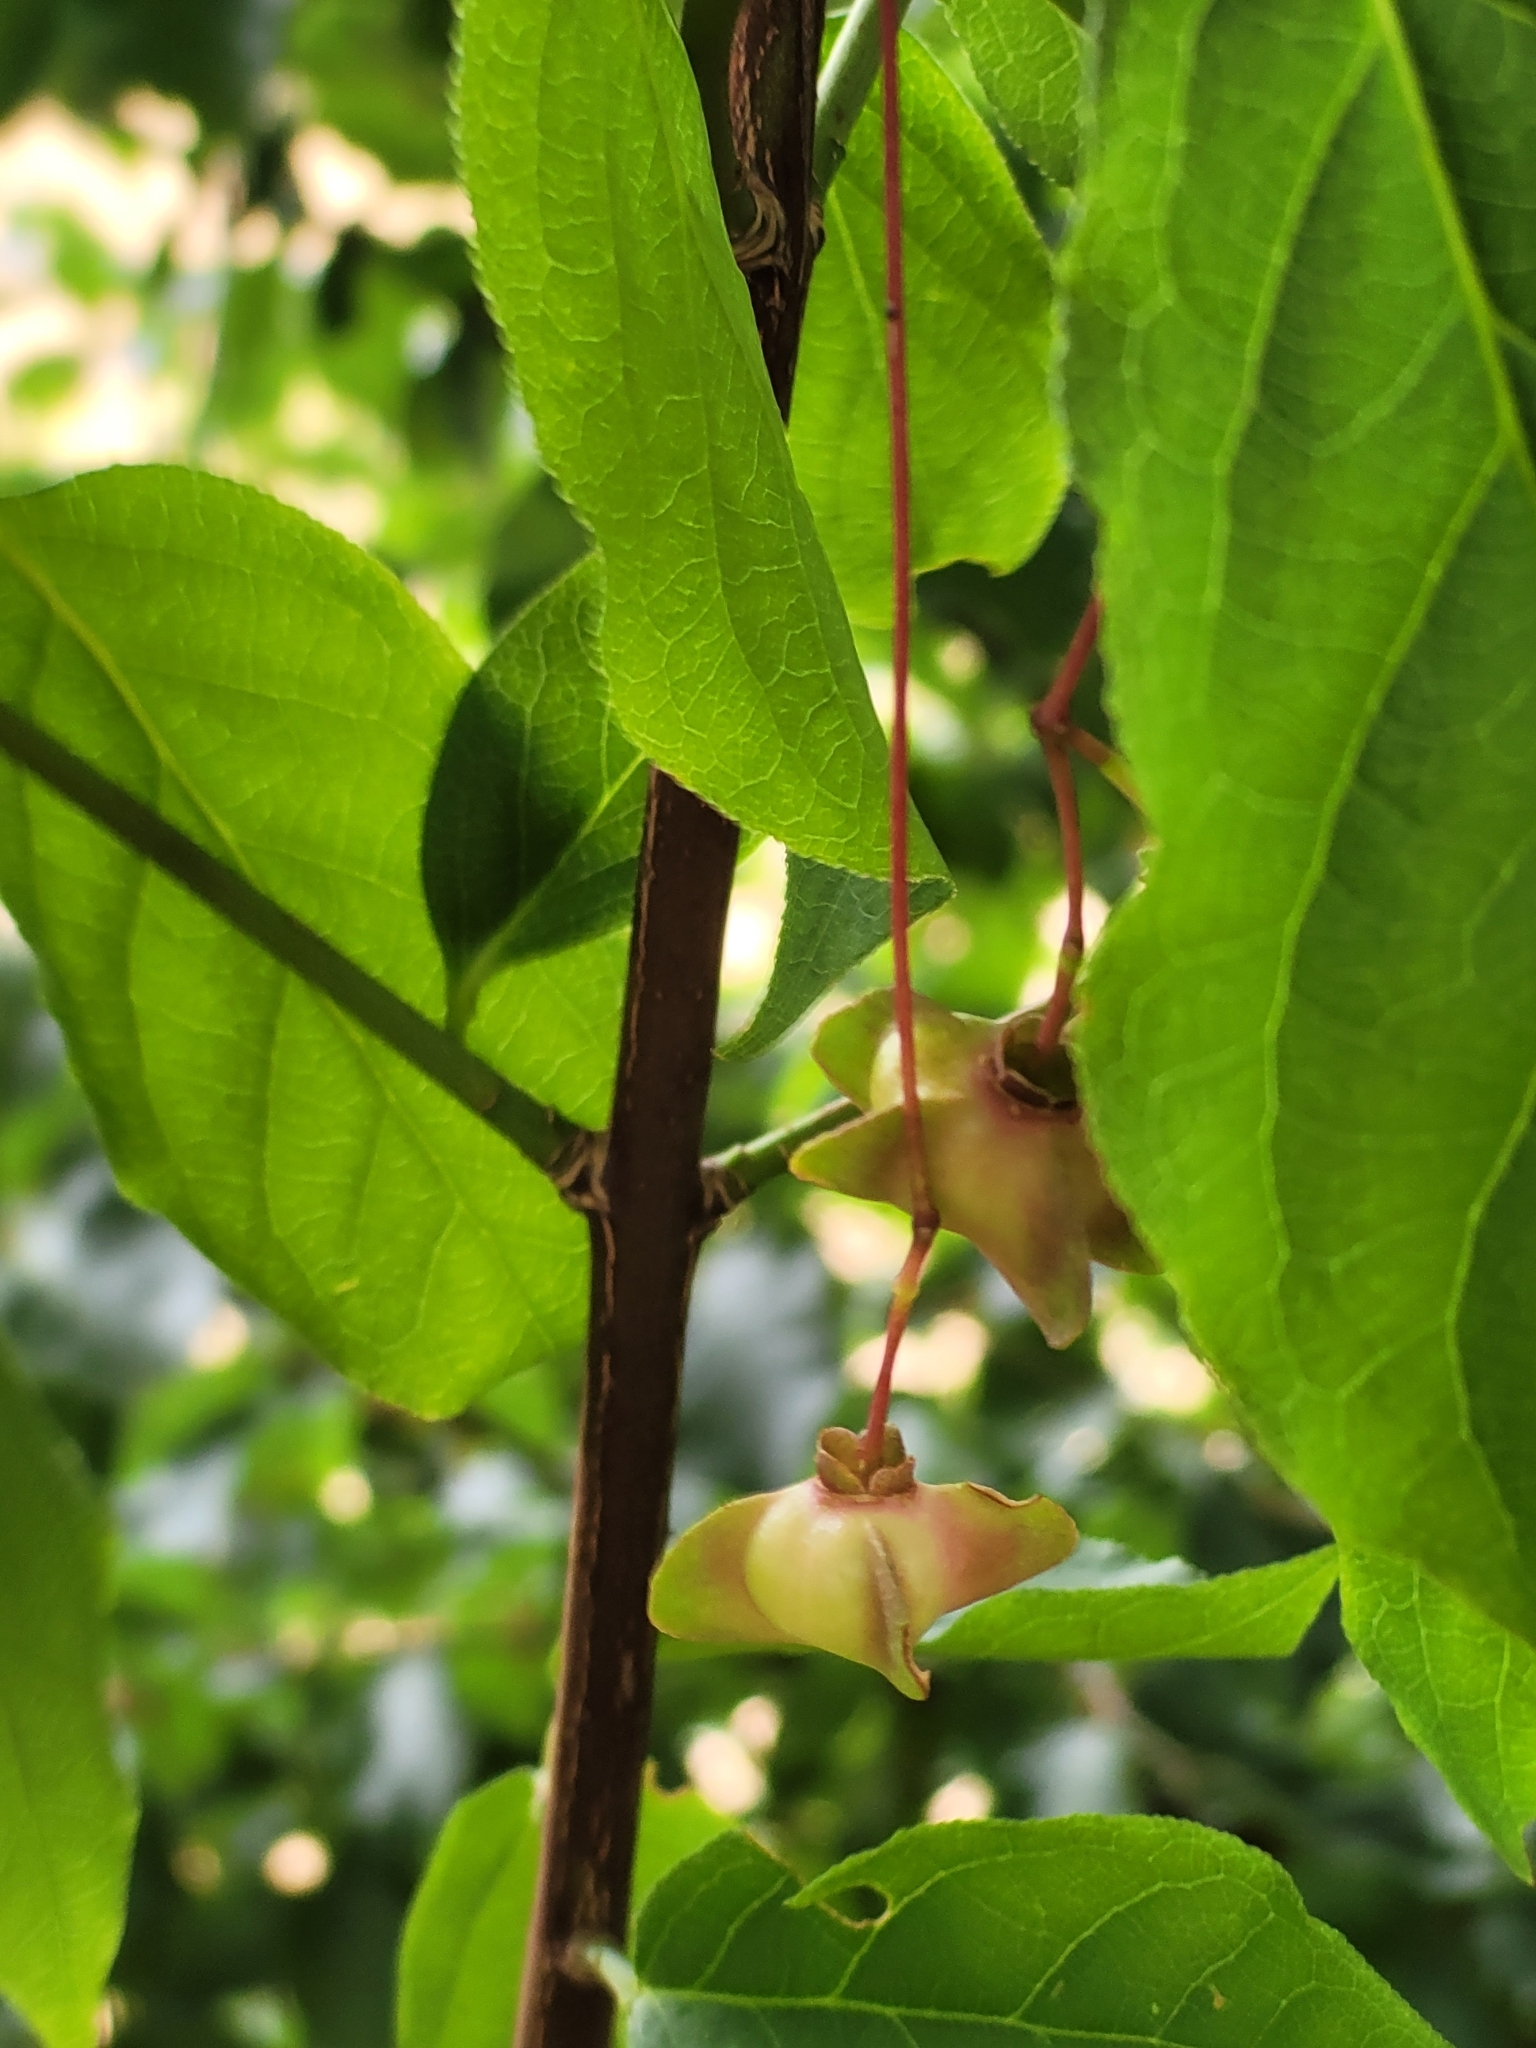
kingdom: Plantae
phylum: Tracheophyta
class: Magnoliopsida
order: Celastrales
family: Celastraceae
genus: Euonymus
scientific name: Euonymus latifolius
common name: Large-leaved spindle
